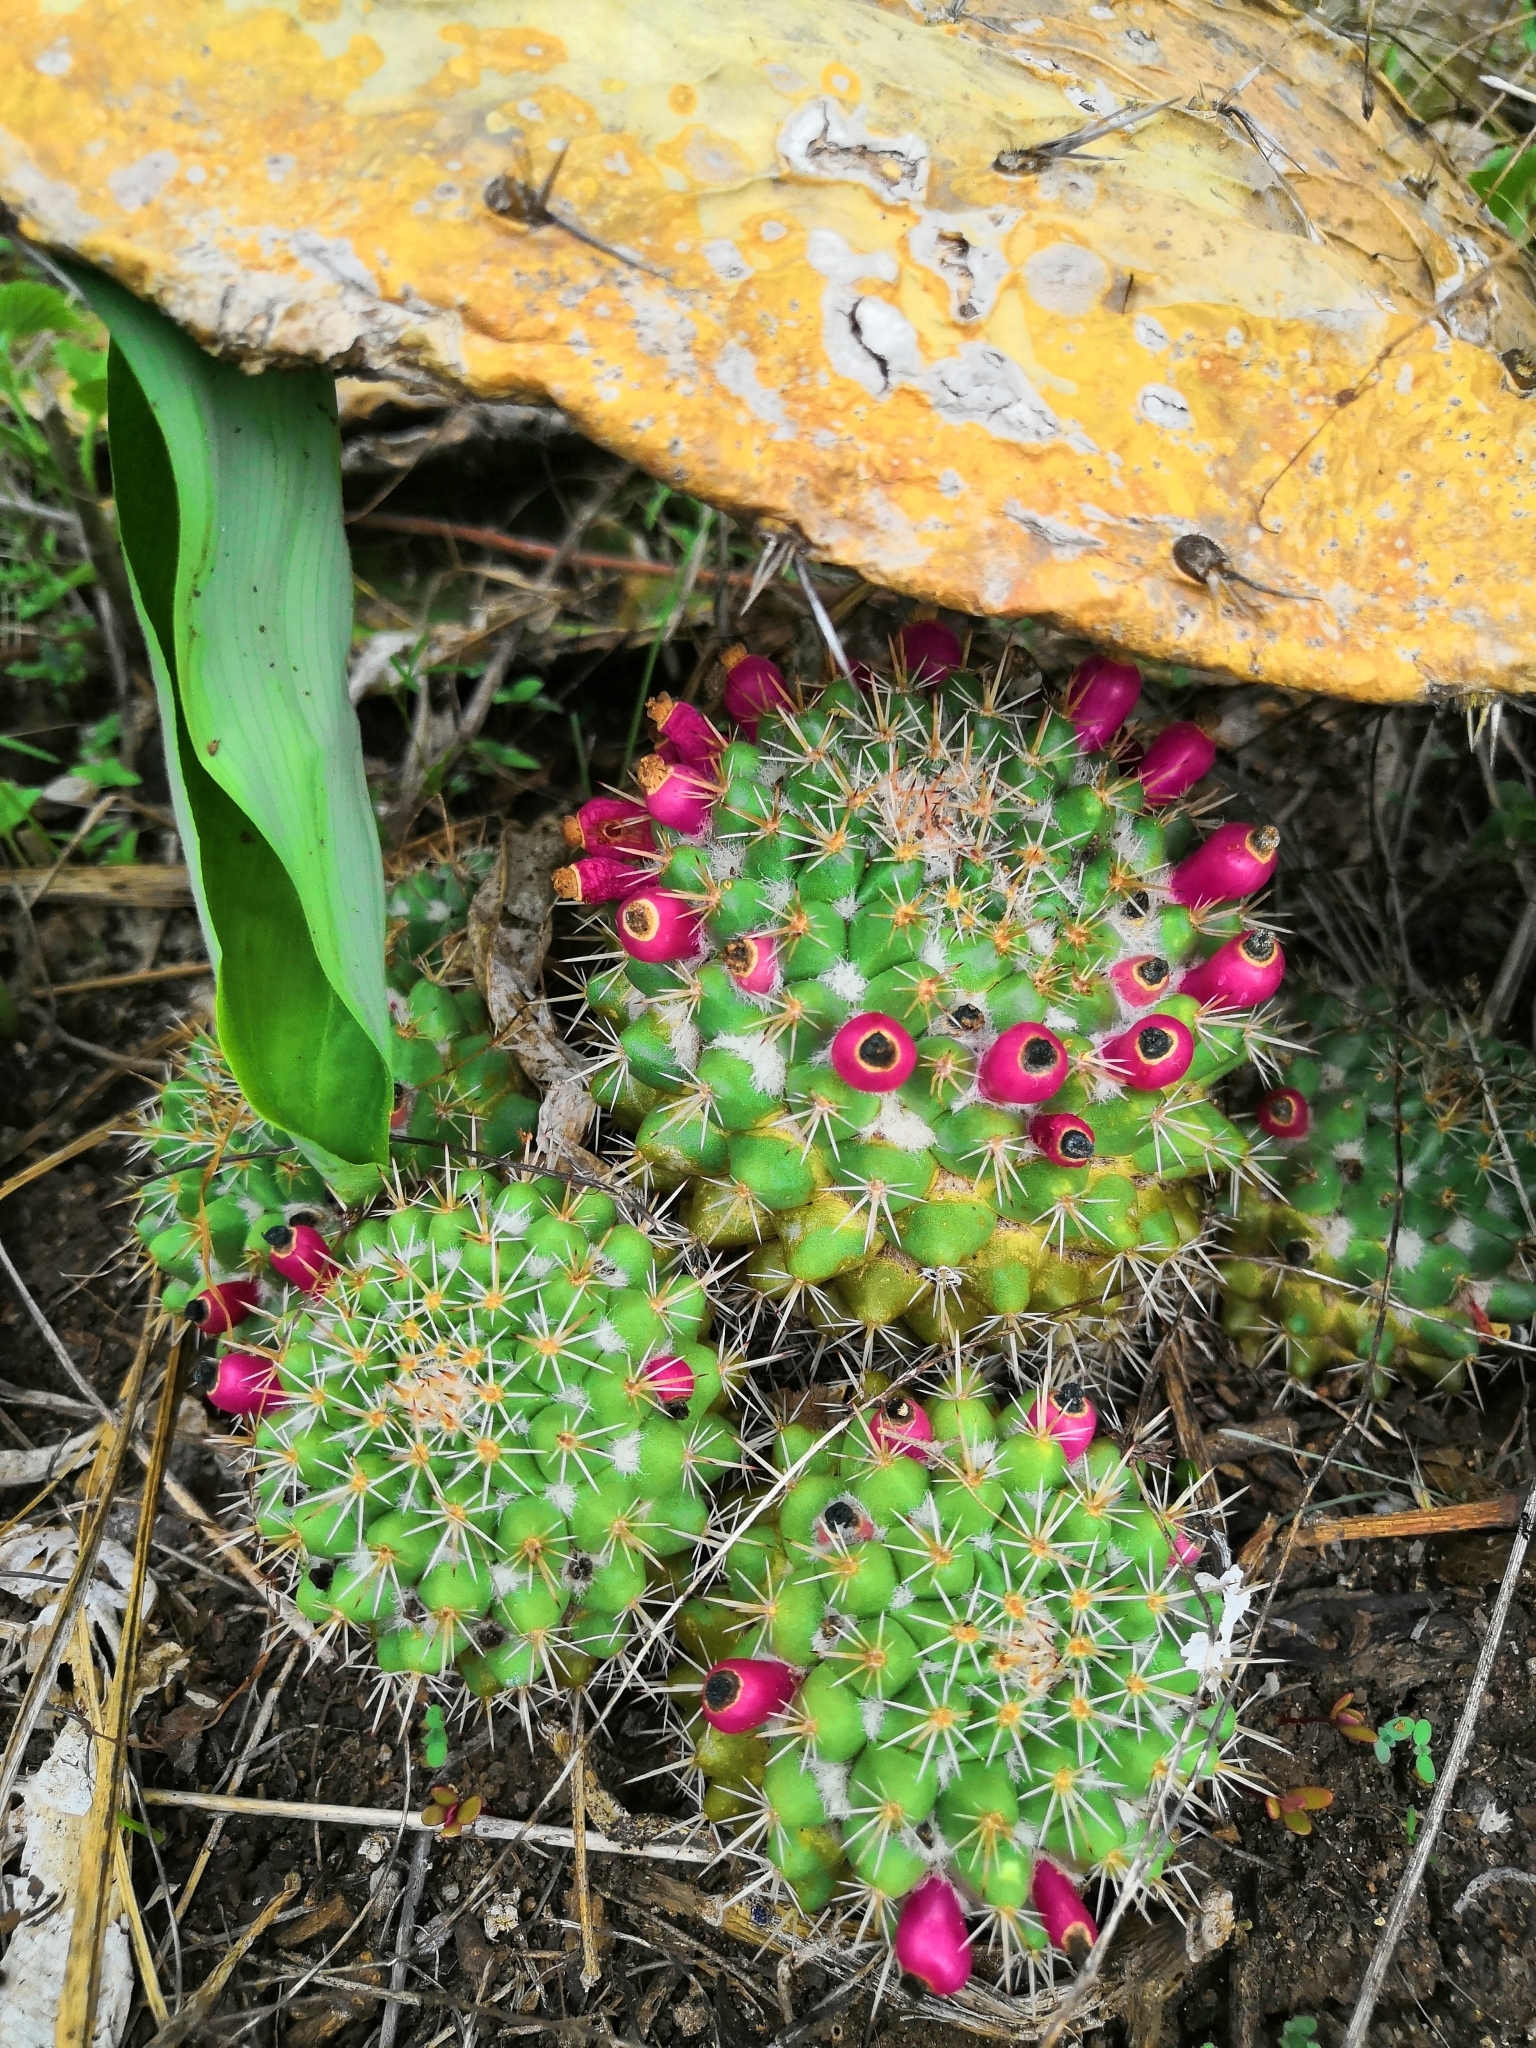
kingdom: Plantae
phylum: Tracheophyta
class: Magnoliopsida
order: Caryophyllales
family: Cactaceae
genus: Mammillaria
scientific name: Mammillaria scrippsiana
